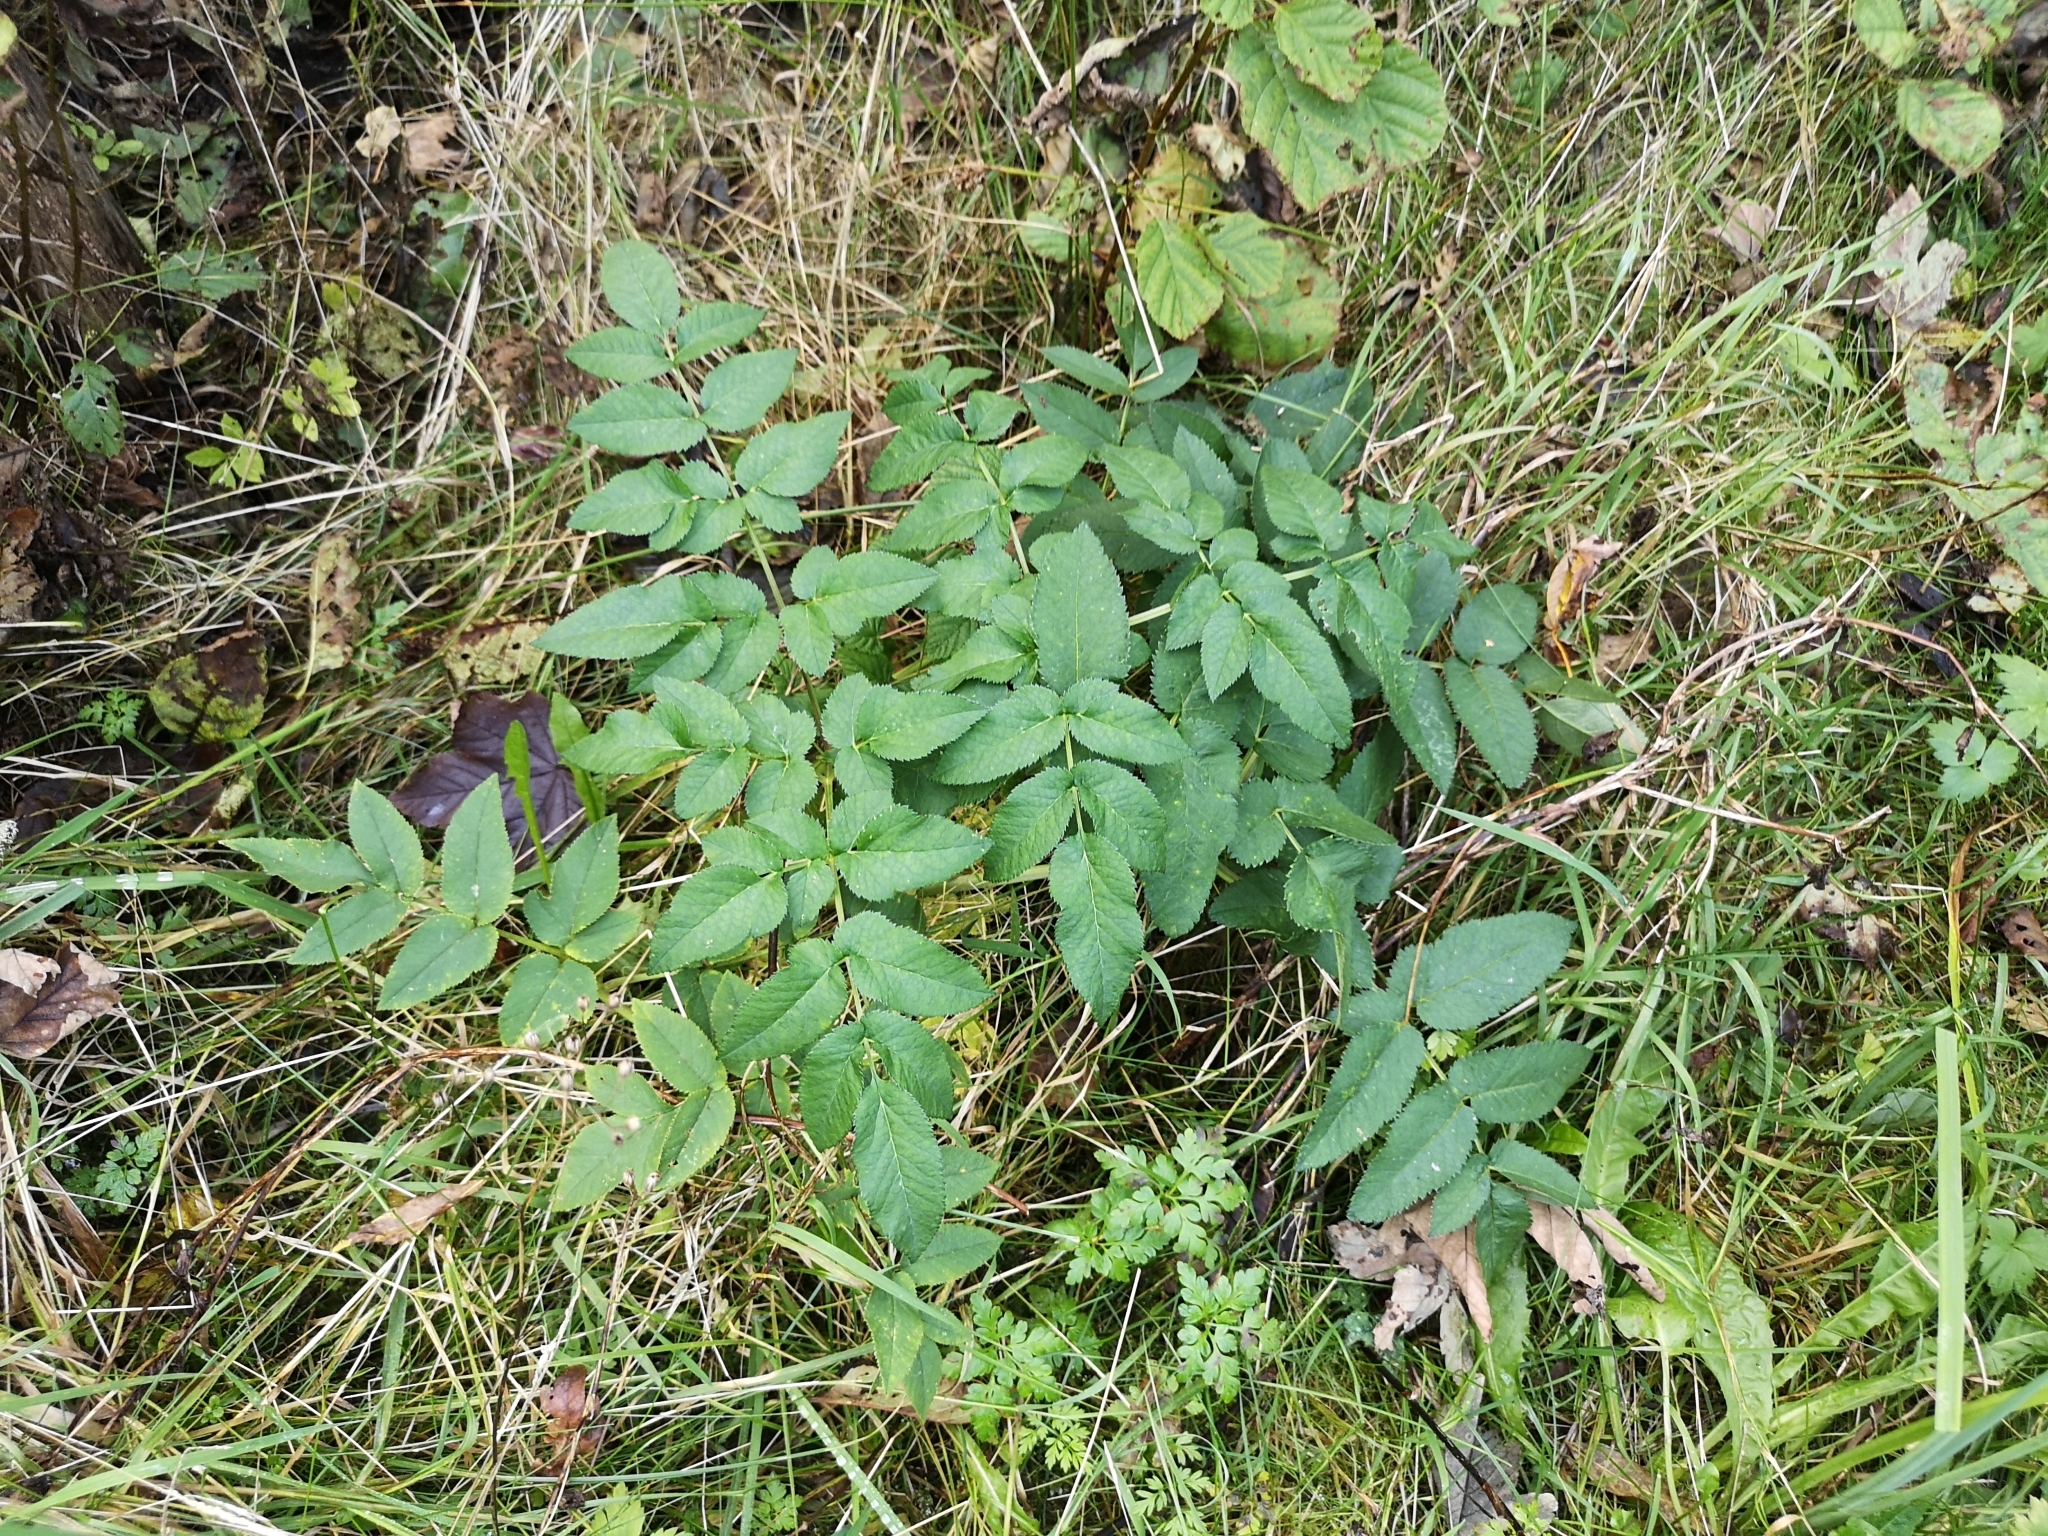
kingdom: Plantae
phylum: Tracheophyta
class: Magnoliopsida
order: Apiales
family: Apiaceae
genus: Angelica
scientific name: Angelica sylvestris
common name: Wild angelica
